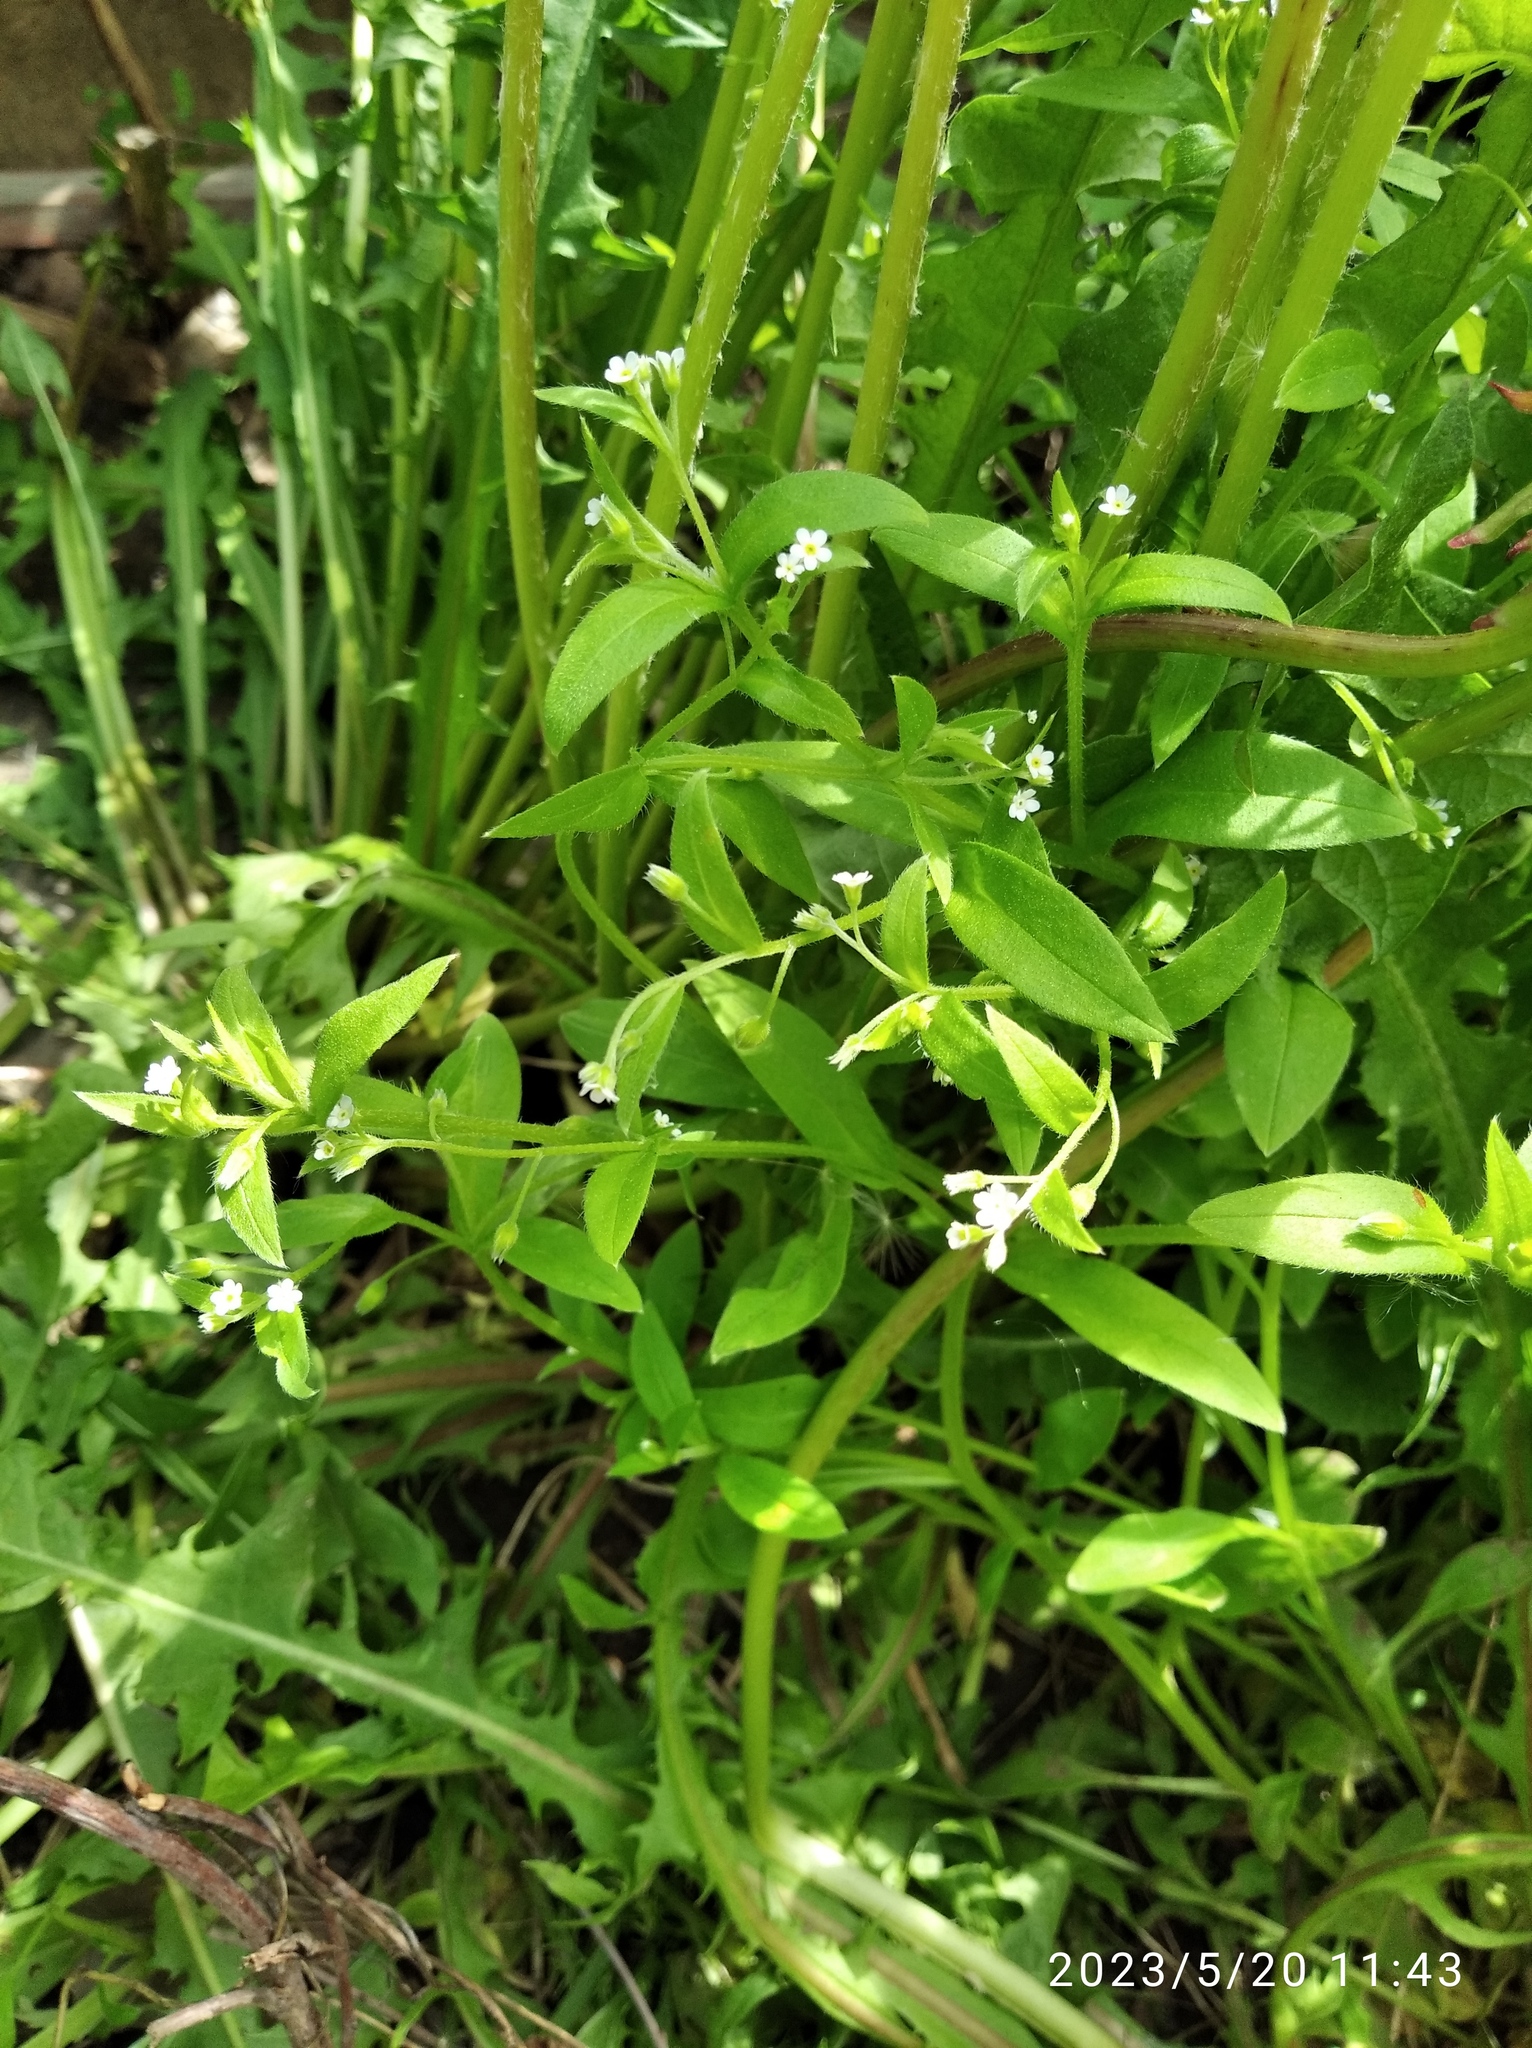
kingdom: Plantae
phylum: Tracheophyta
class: Magnoliopsida
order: Boraginales
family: Boraginaceae
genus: Myosotis
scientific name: Myosotis sparsiflora
